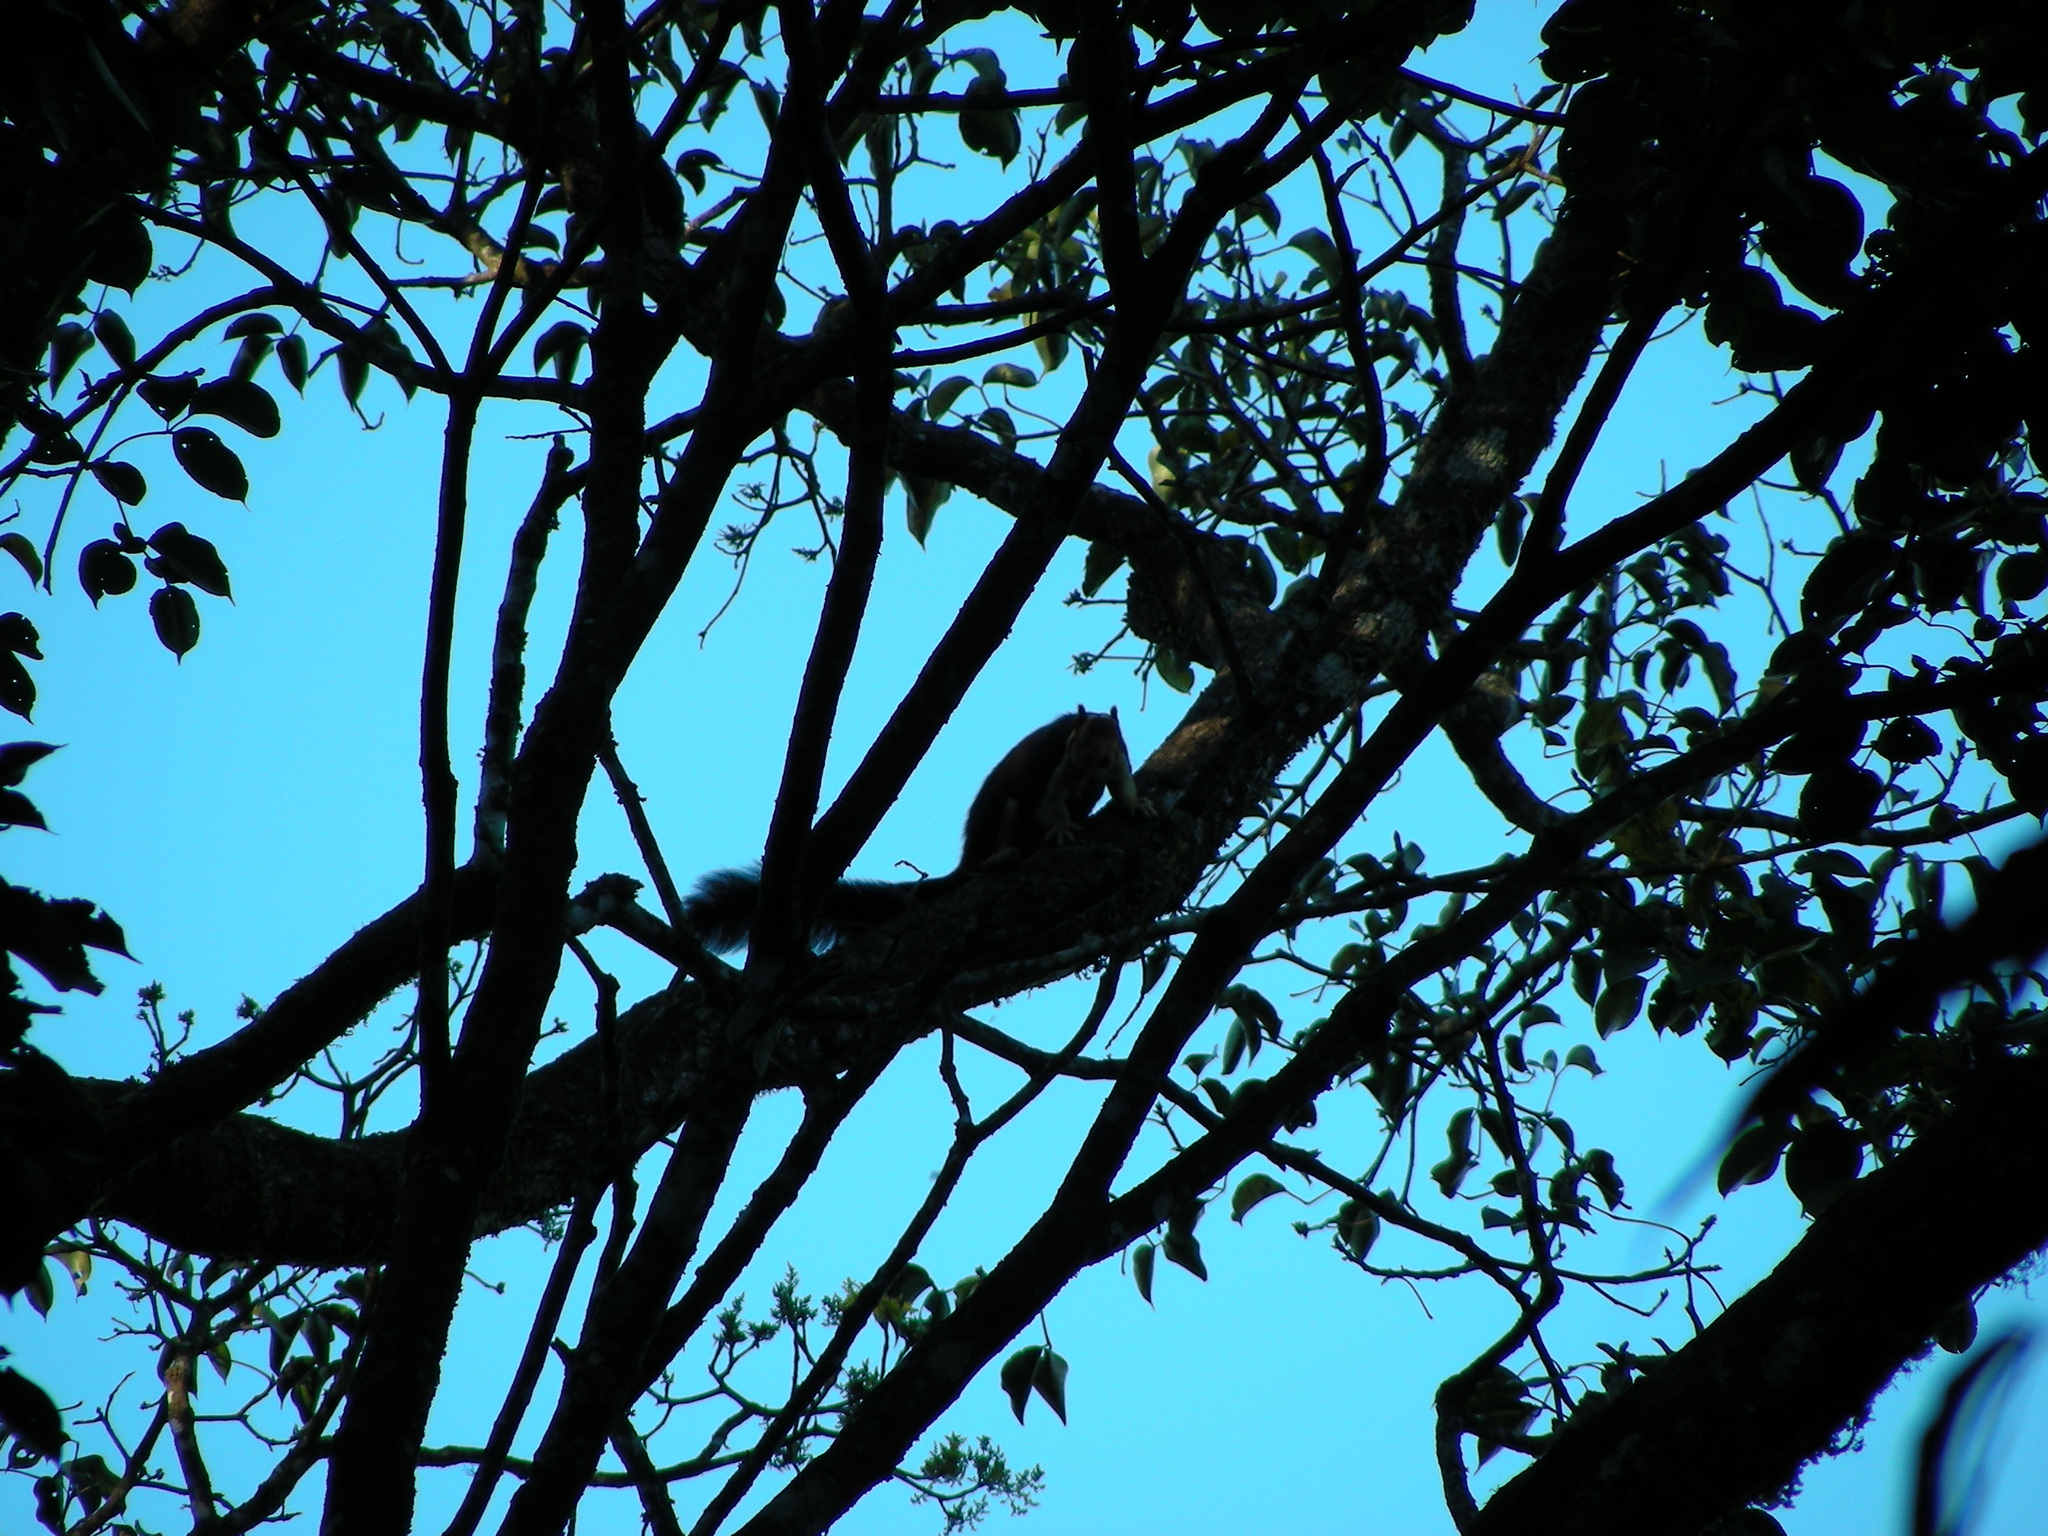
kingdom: Animalia
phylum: Chordata
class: Mammalia
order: Rodentia
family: Sciuridae
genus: Ratufa
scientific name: Ratufa indica
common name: Indian giant squirrel
